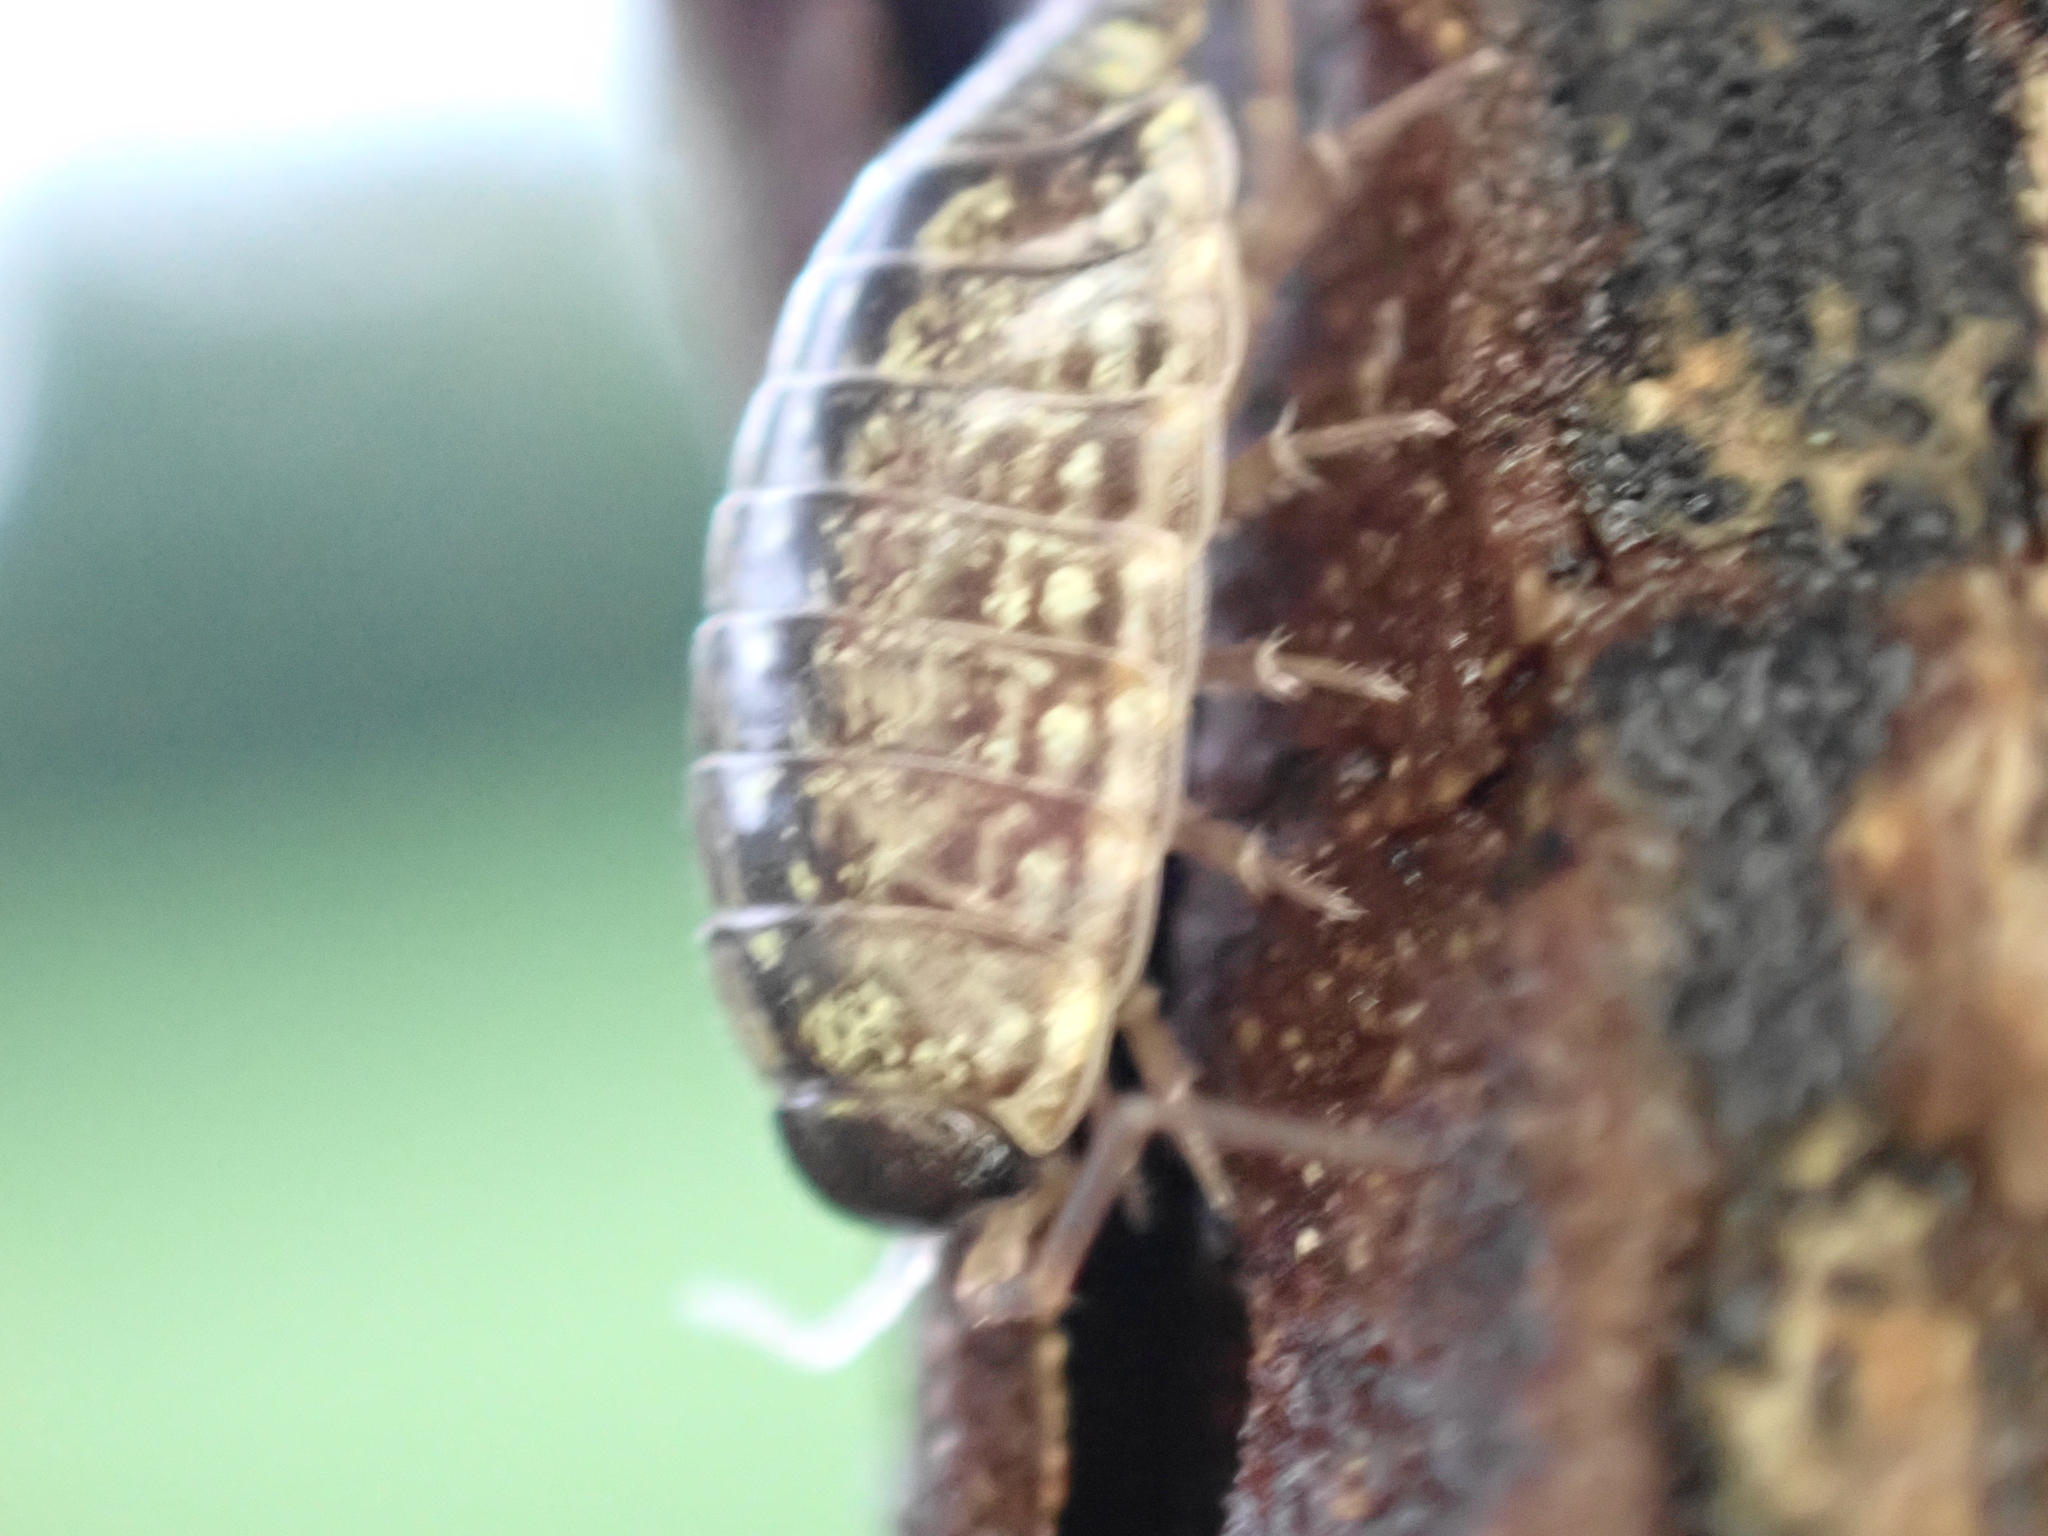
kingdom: Animalia
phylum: Arthropoda
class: Malacostraca
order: Isopoda
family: Philosciidae
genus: Philoscia
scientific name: Philoscia muscorum
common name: Common striped woodlouse
